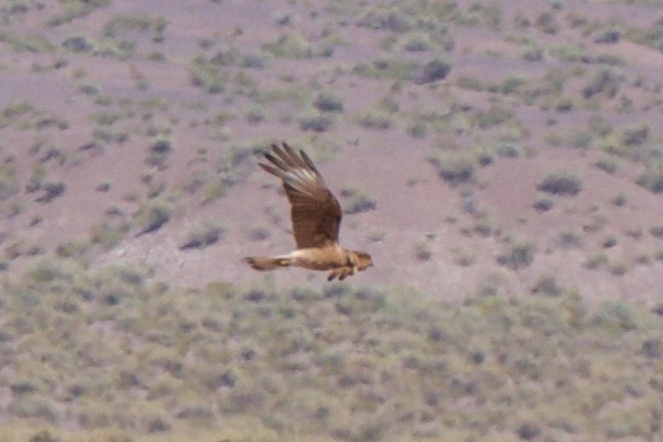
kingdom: Animalia
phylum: Chordata
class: Aves
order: Falconiformes
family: Falconidae
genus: Daptrius
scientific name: Daptrius
